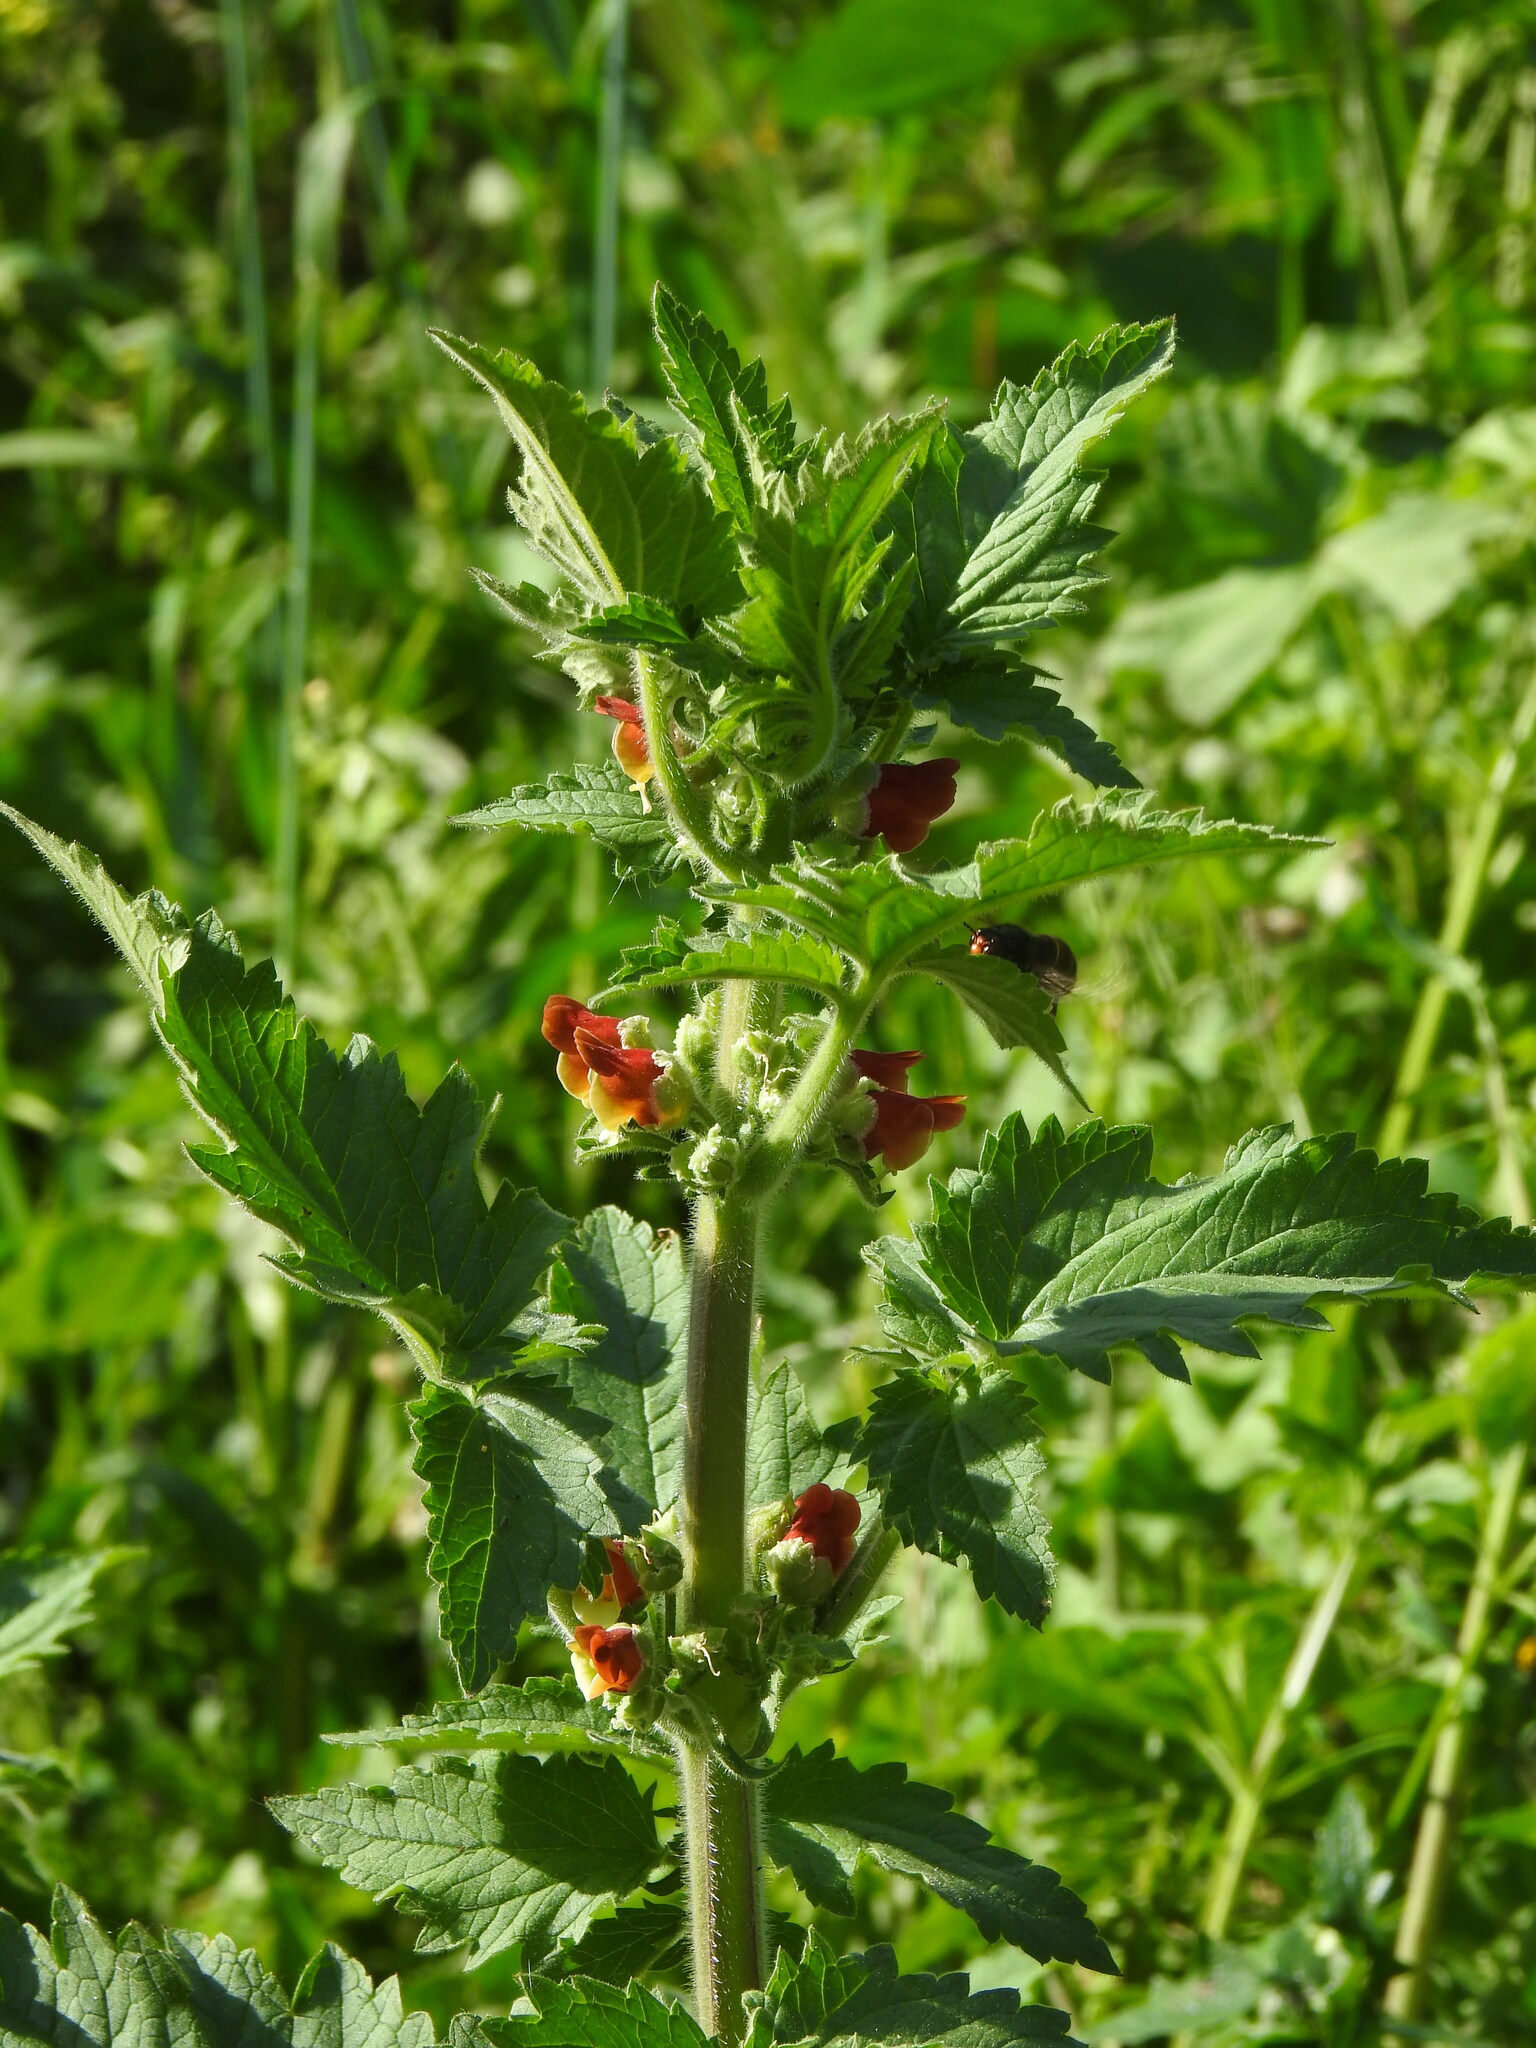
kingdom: Plantae
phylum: Tracheophyta
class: Magnoliopsida
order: Lamiales
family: Scrophulariaceae
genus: Scrophularia
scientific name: Scrophularia grandiflora
